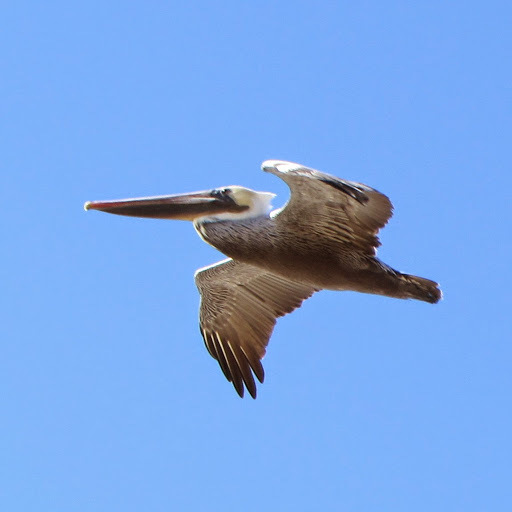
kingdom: Animalia
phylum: Chordata
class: Aves
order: Pelecaniformes
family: Pelecanidae
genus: Pelecanus
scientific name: Pelecanus occidentalis
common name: Brown pelican
